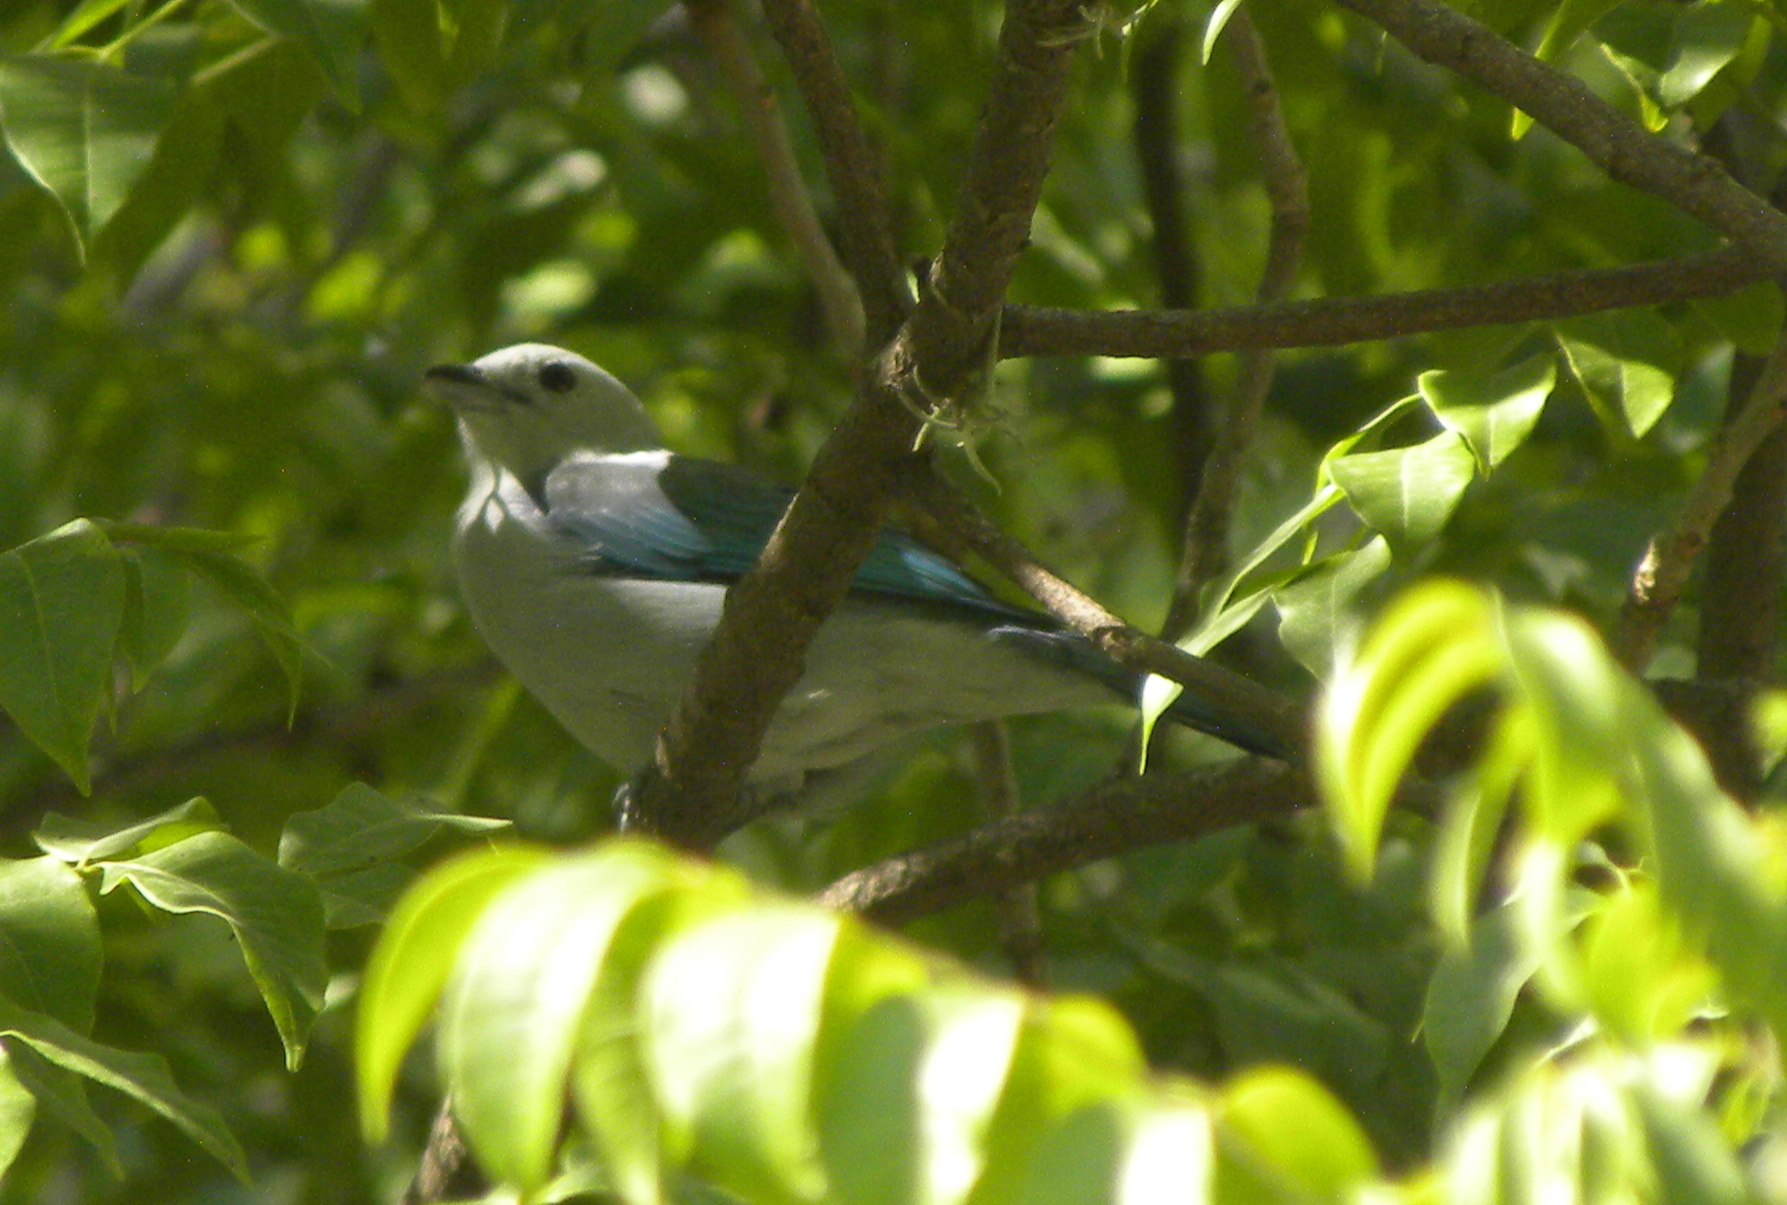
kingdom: Animalia
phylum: Chordata
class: Aves
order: Passeriformes
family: Thraupidae
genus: Thraupis
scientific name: Thraupis episcopus
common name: Blue-grey tanager
